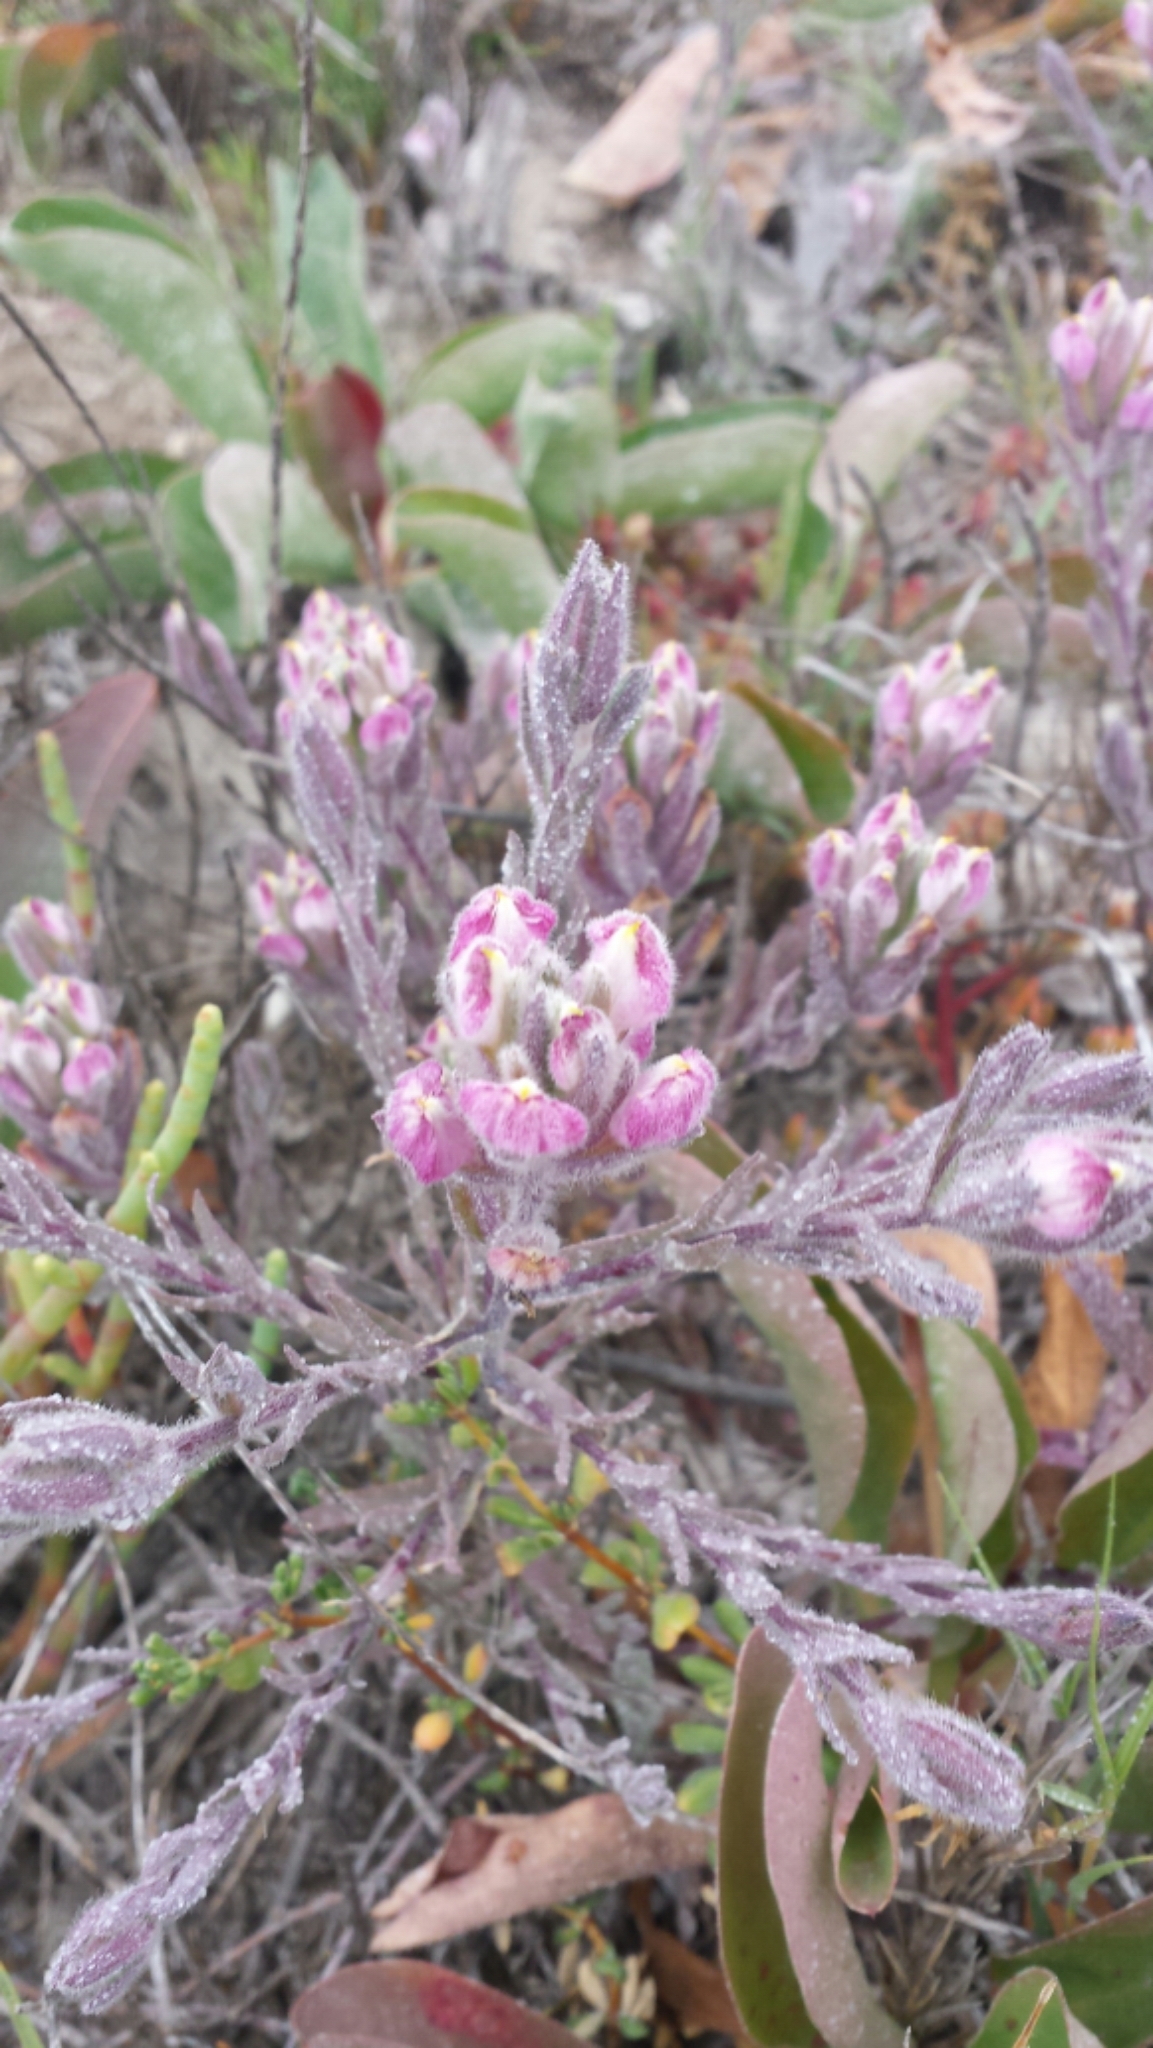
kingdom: Plantae
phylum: Tracheophyta
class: Magnoliopsida
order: Lamiales
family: Orobanchaceae
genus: Chloropyron
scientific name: Chloropyron maritimum
